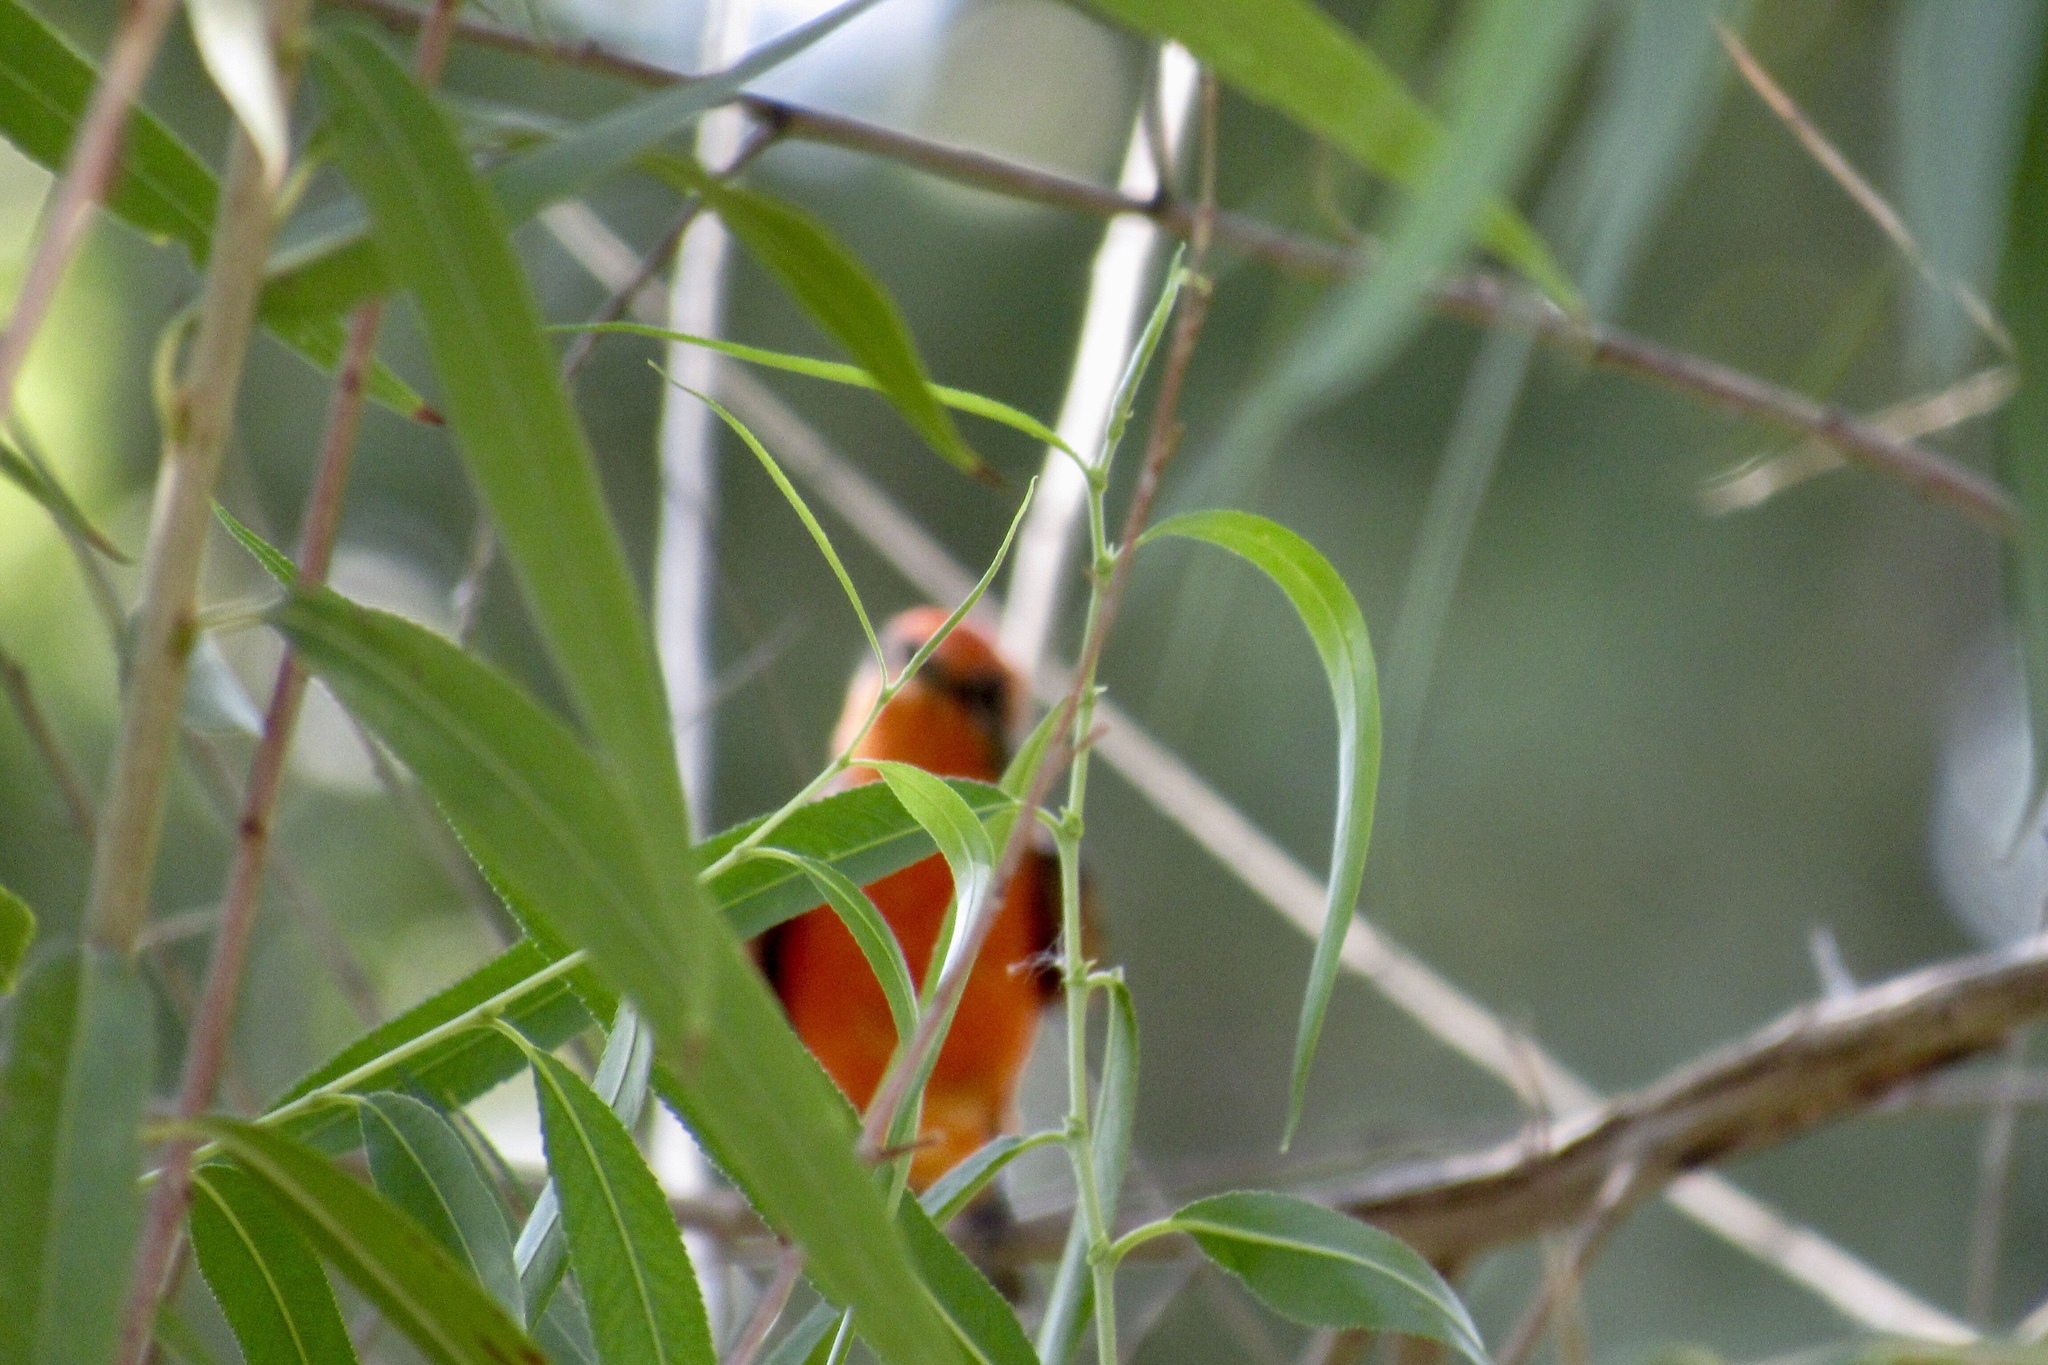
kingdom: Animalia
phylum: Chordata
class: Aves
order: Passeriformes
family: Tyrannidae
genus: Pyrocephalus
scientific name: Pyrocephalus rubinus
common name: Vermilion flycatcher
